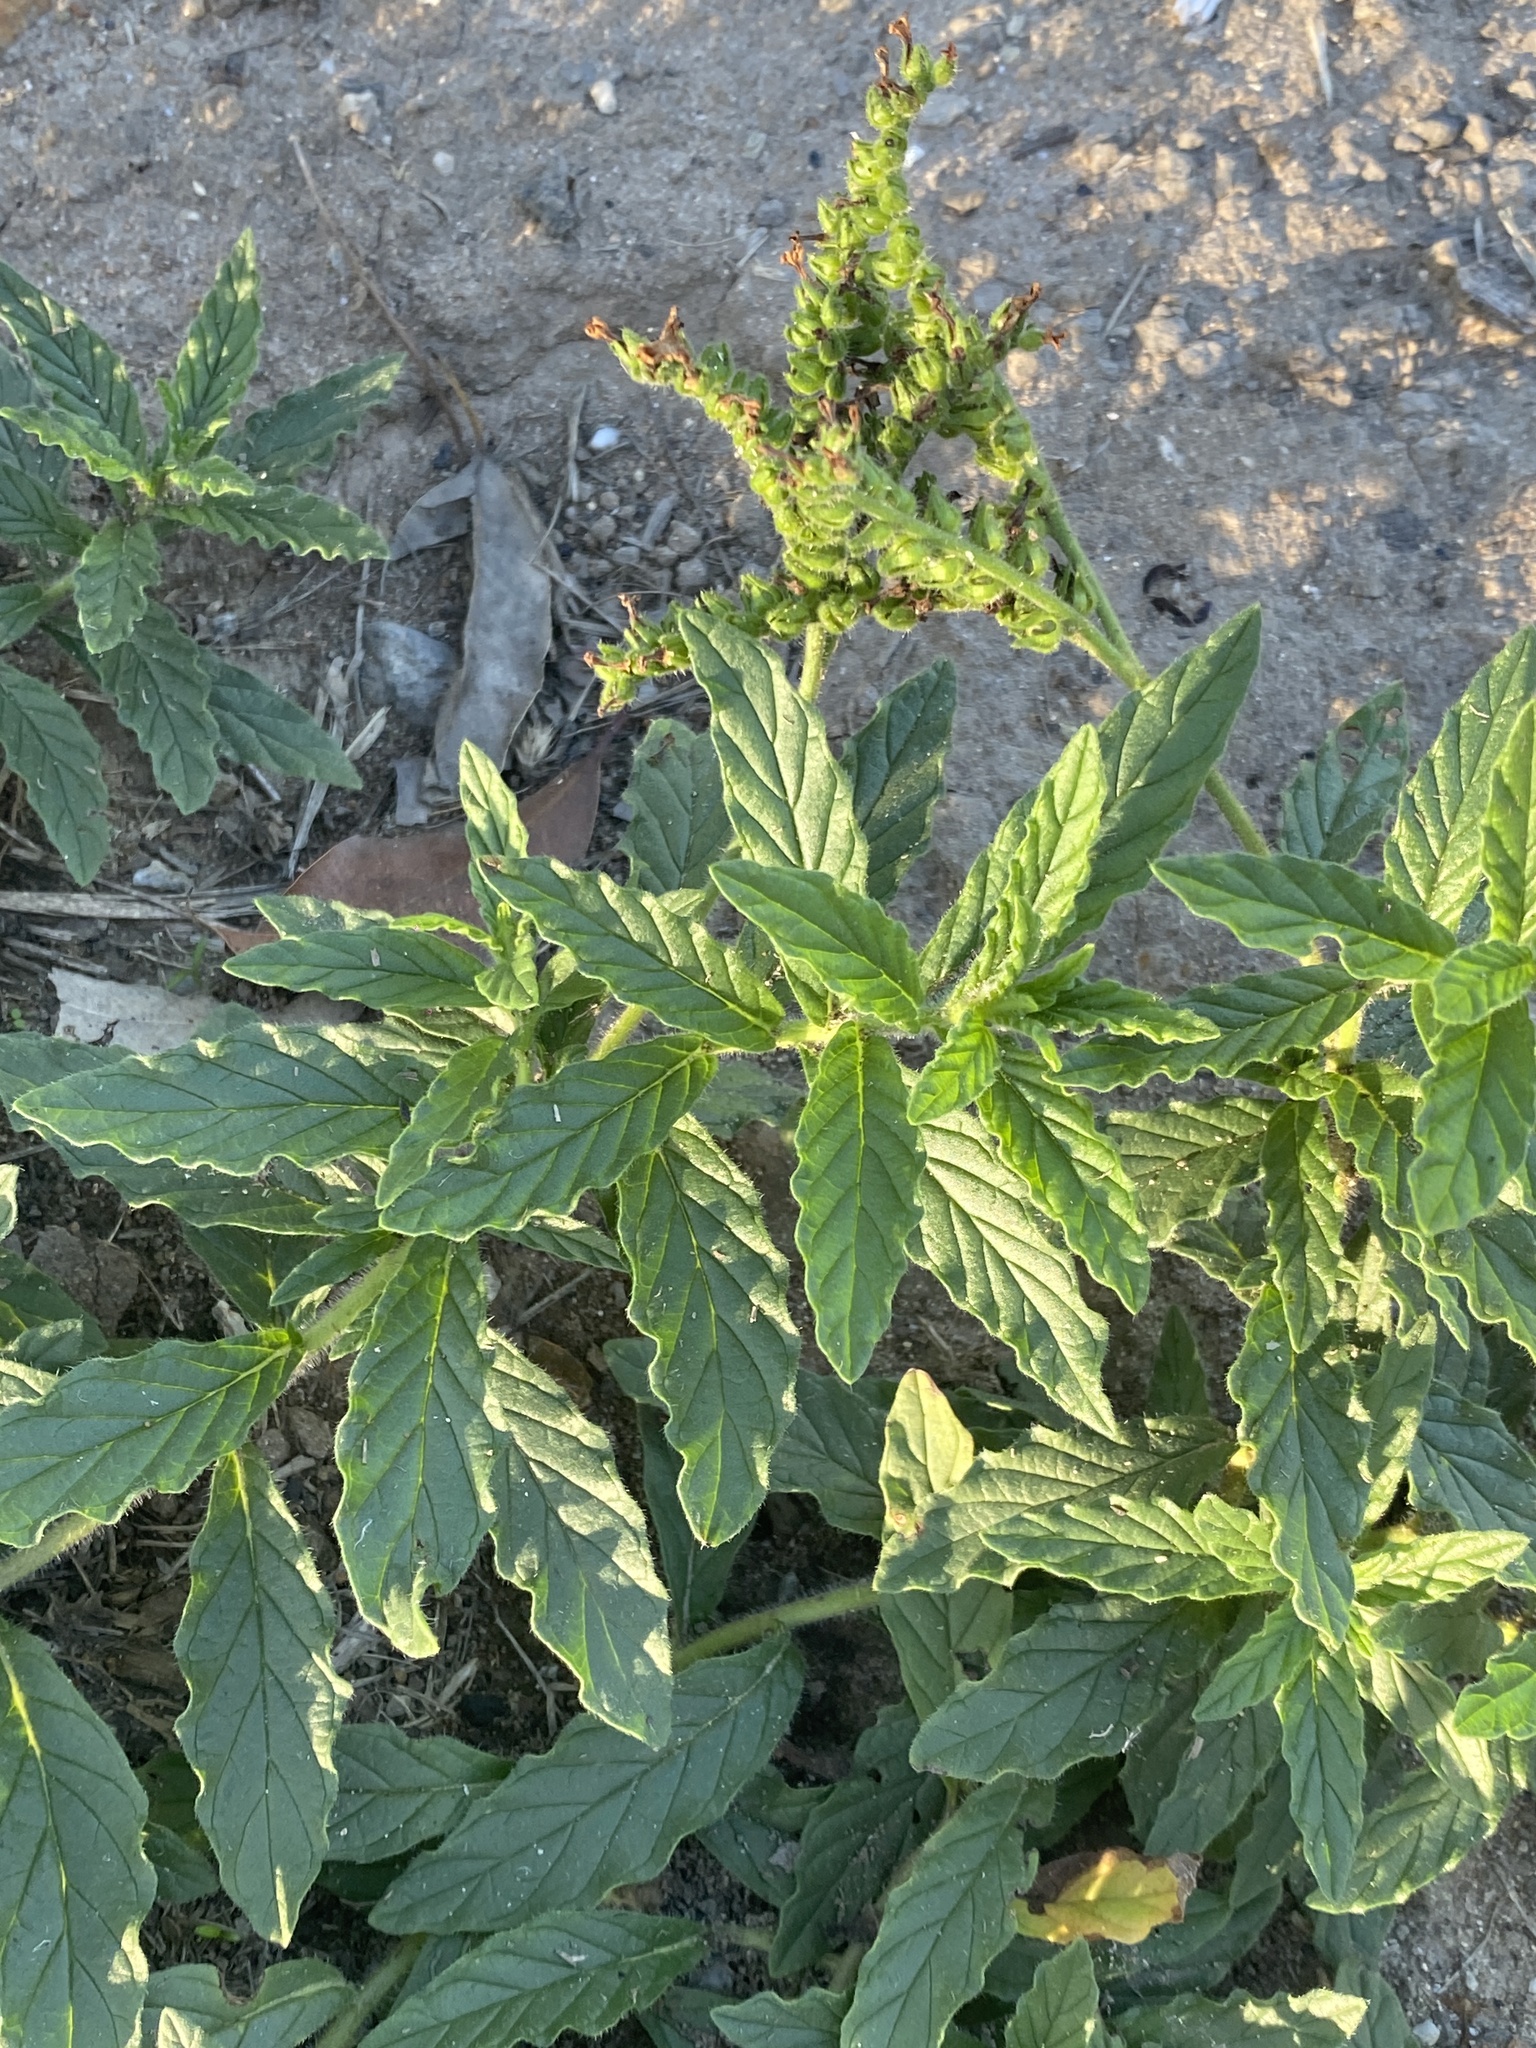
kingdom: Plantae
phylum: Tracheophyta
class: Magnoliopsida
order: Boraginales
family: Heliotropiaceae
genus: Heliotropium
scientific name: Heliotropium amplexicaule
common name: Clasping heliotrope
